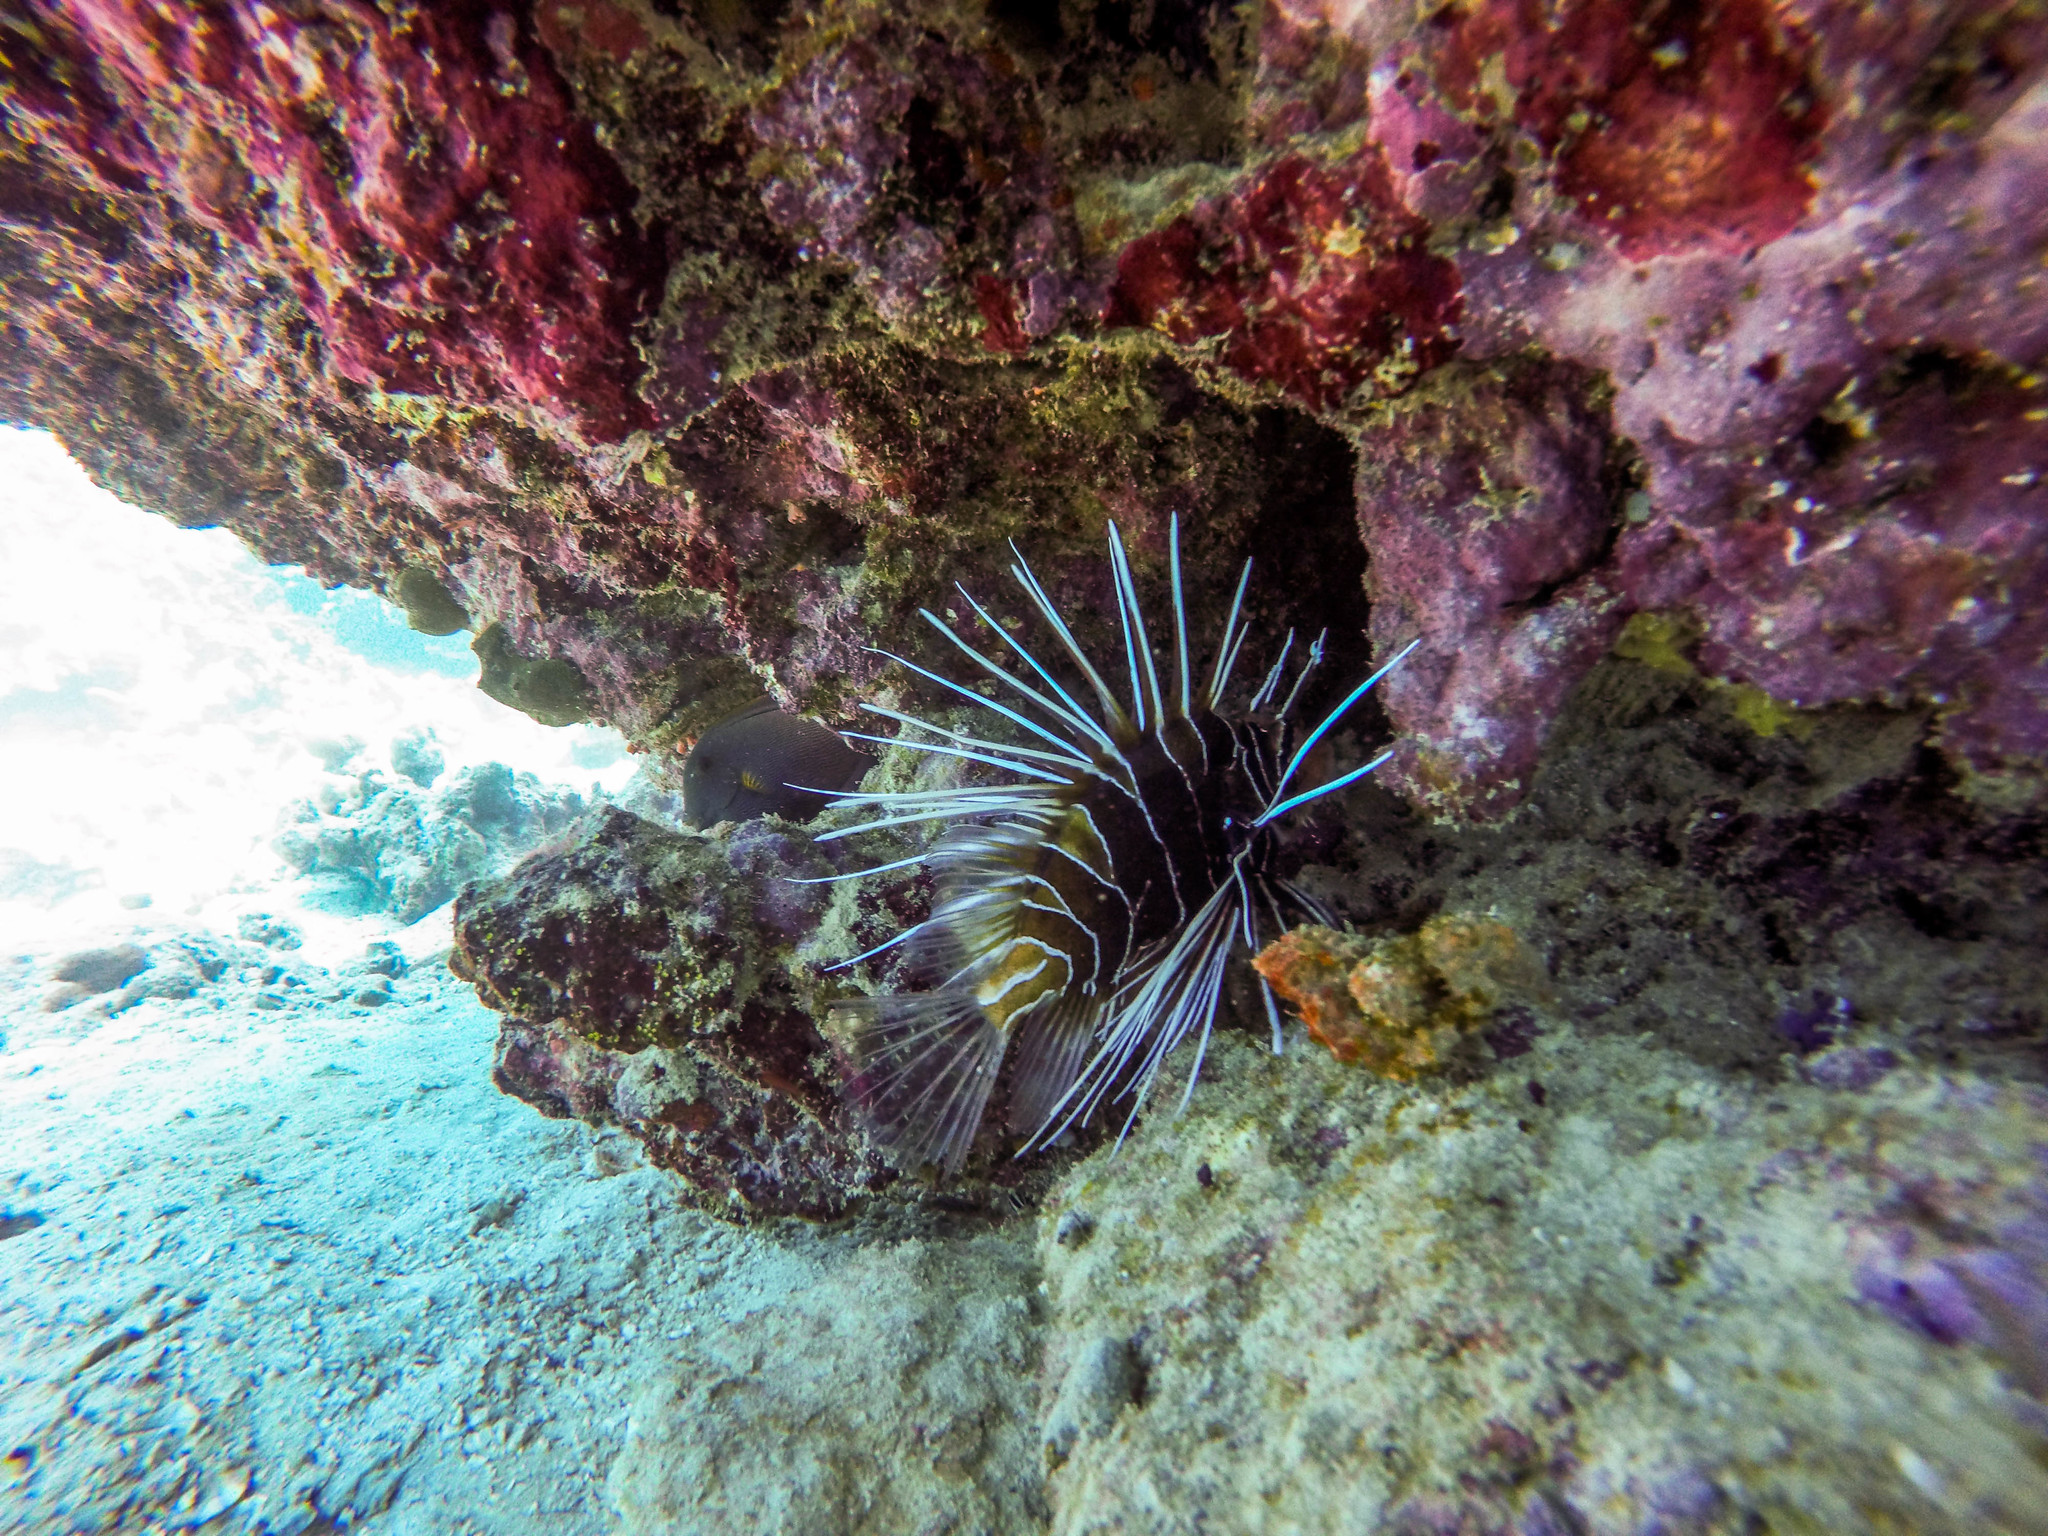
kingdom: Animalia
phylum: Chordata
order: Scorpaeniformes
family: Scorpaenidae
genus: Pterois
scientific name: Pterois cincta
